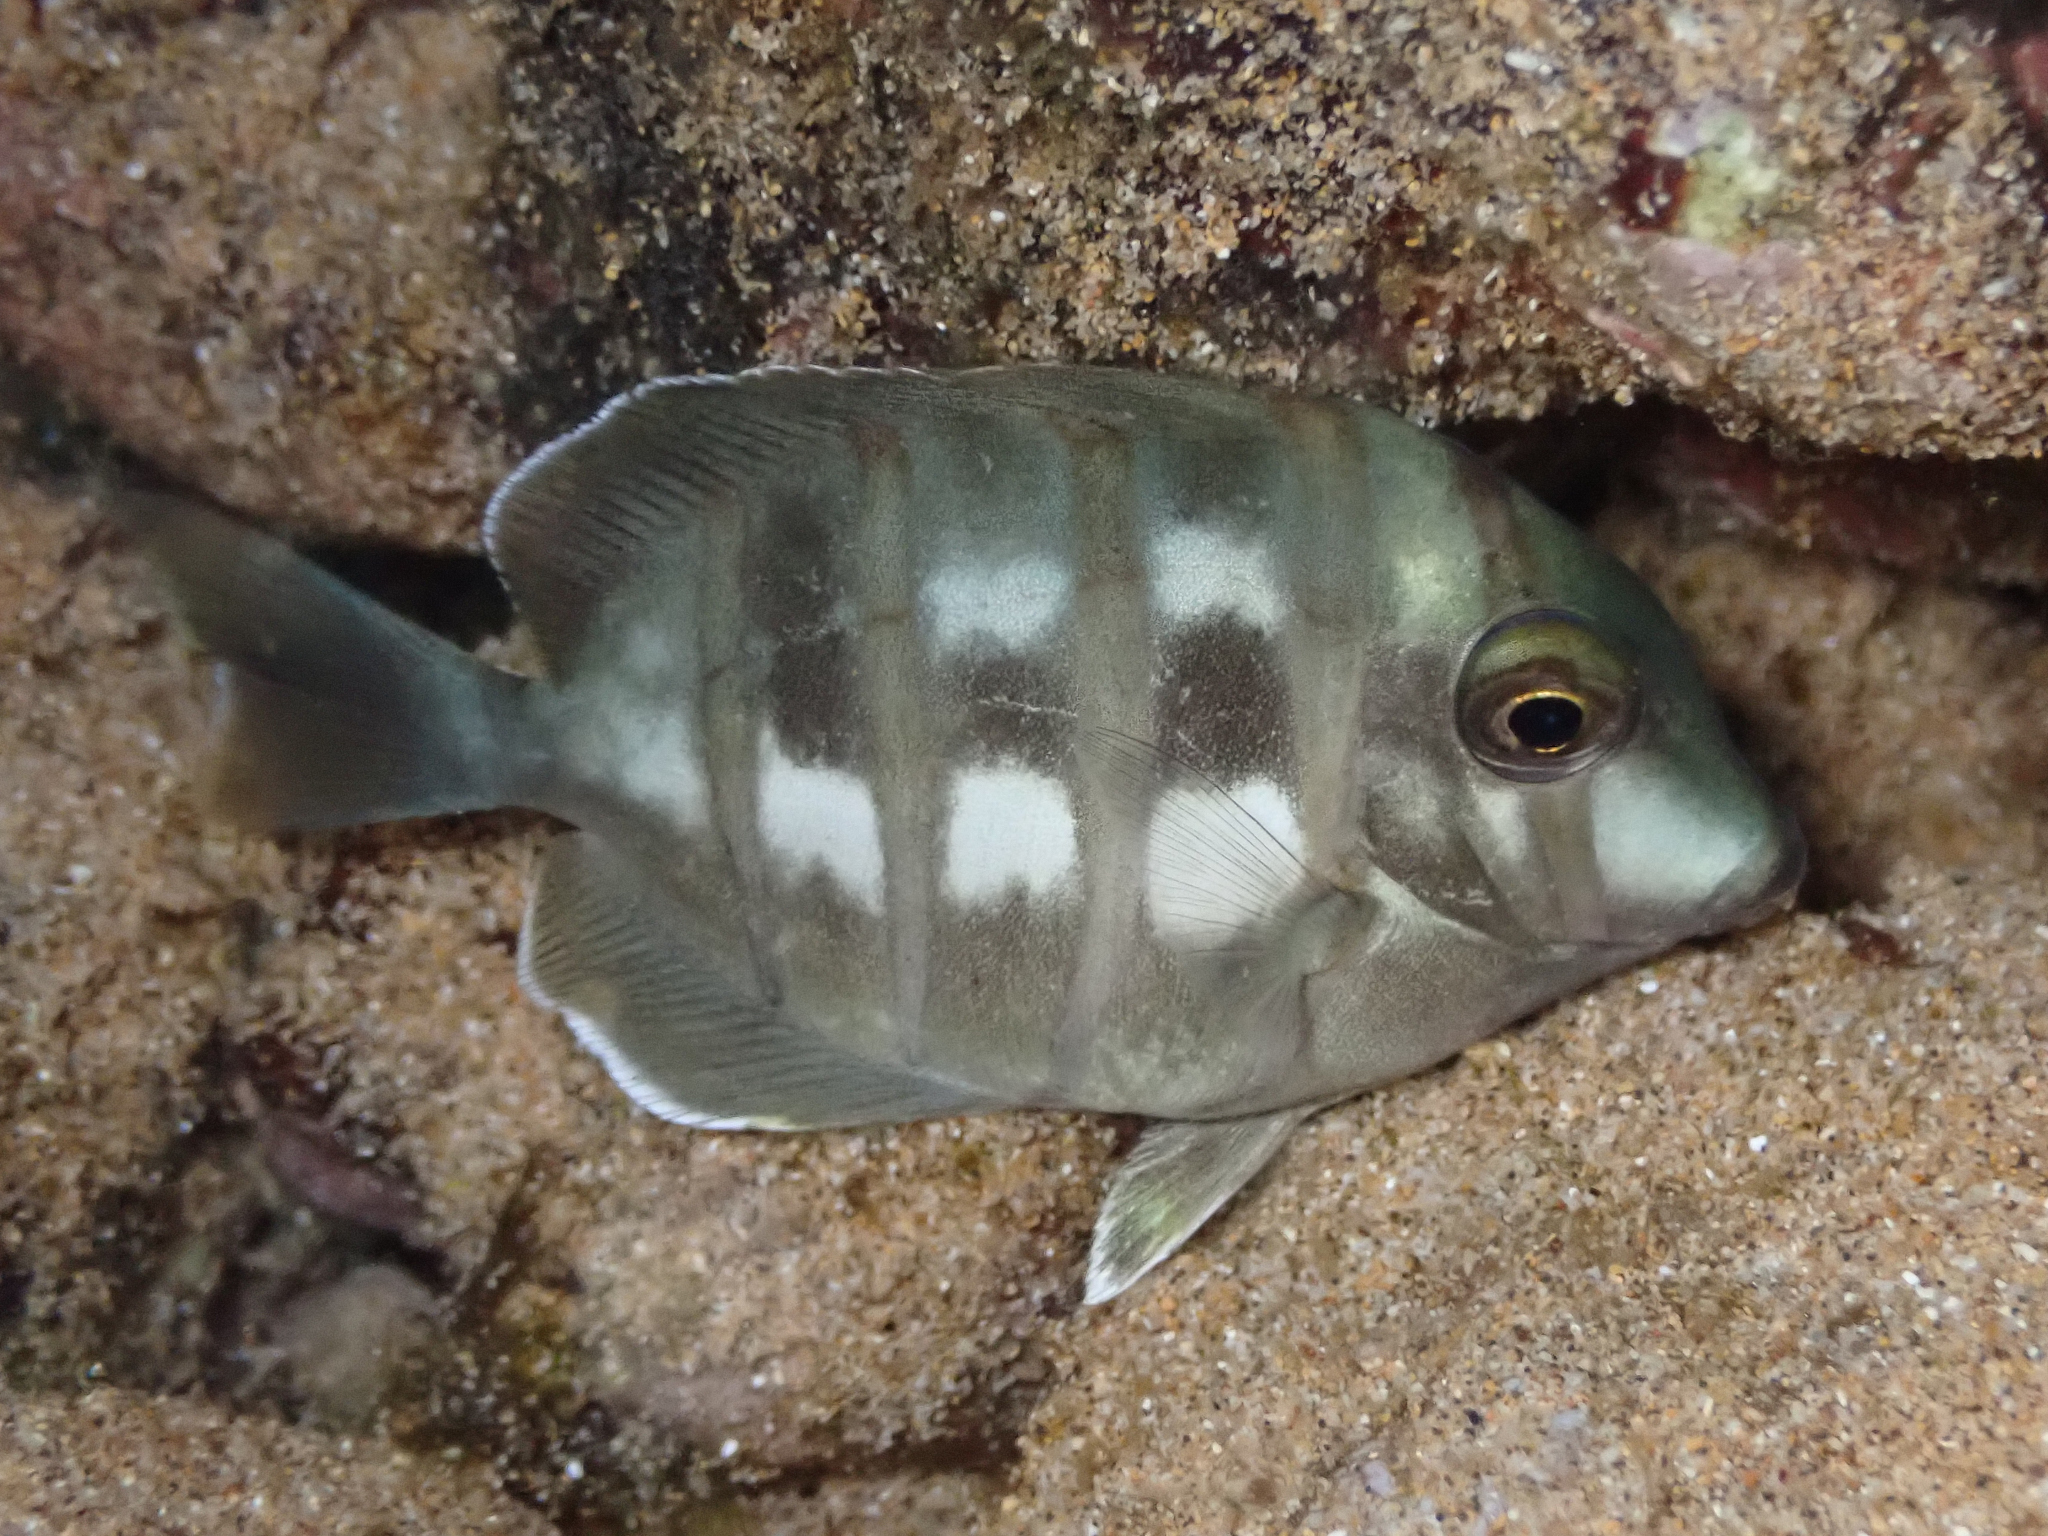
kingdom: Animalia
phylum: Chordata
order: Perciformes
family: Acanthuridae
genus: Acanthurus
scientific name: Acanthurus triostegus
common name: Convict surgeonfish
